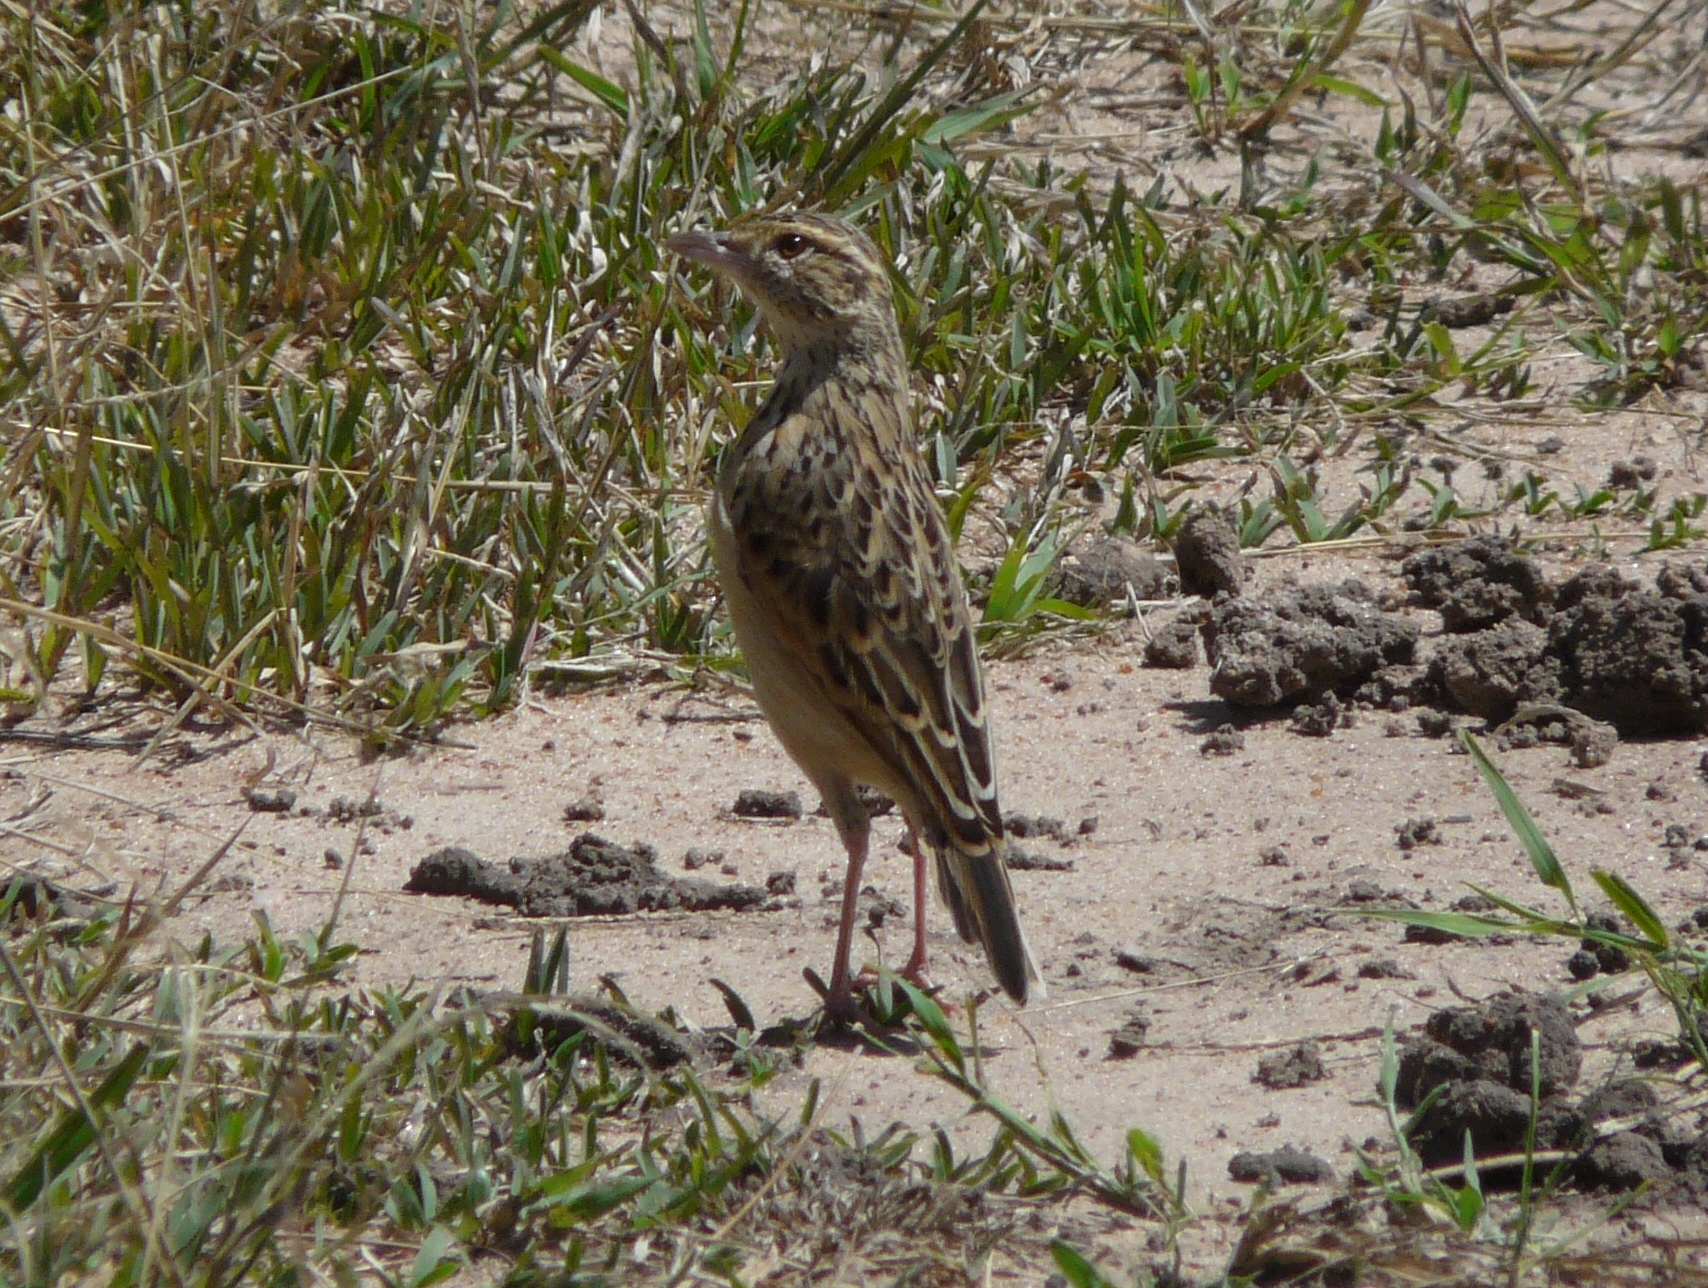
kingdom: Animalia
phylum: Chordata
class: Aves
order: Passeriformes
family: Alaudidae
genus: Mirafra
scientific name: Mirafra africana
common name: Rufous-naped lark
